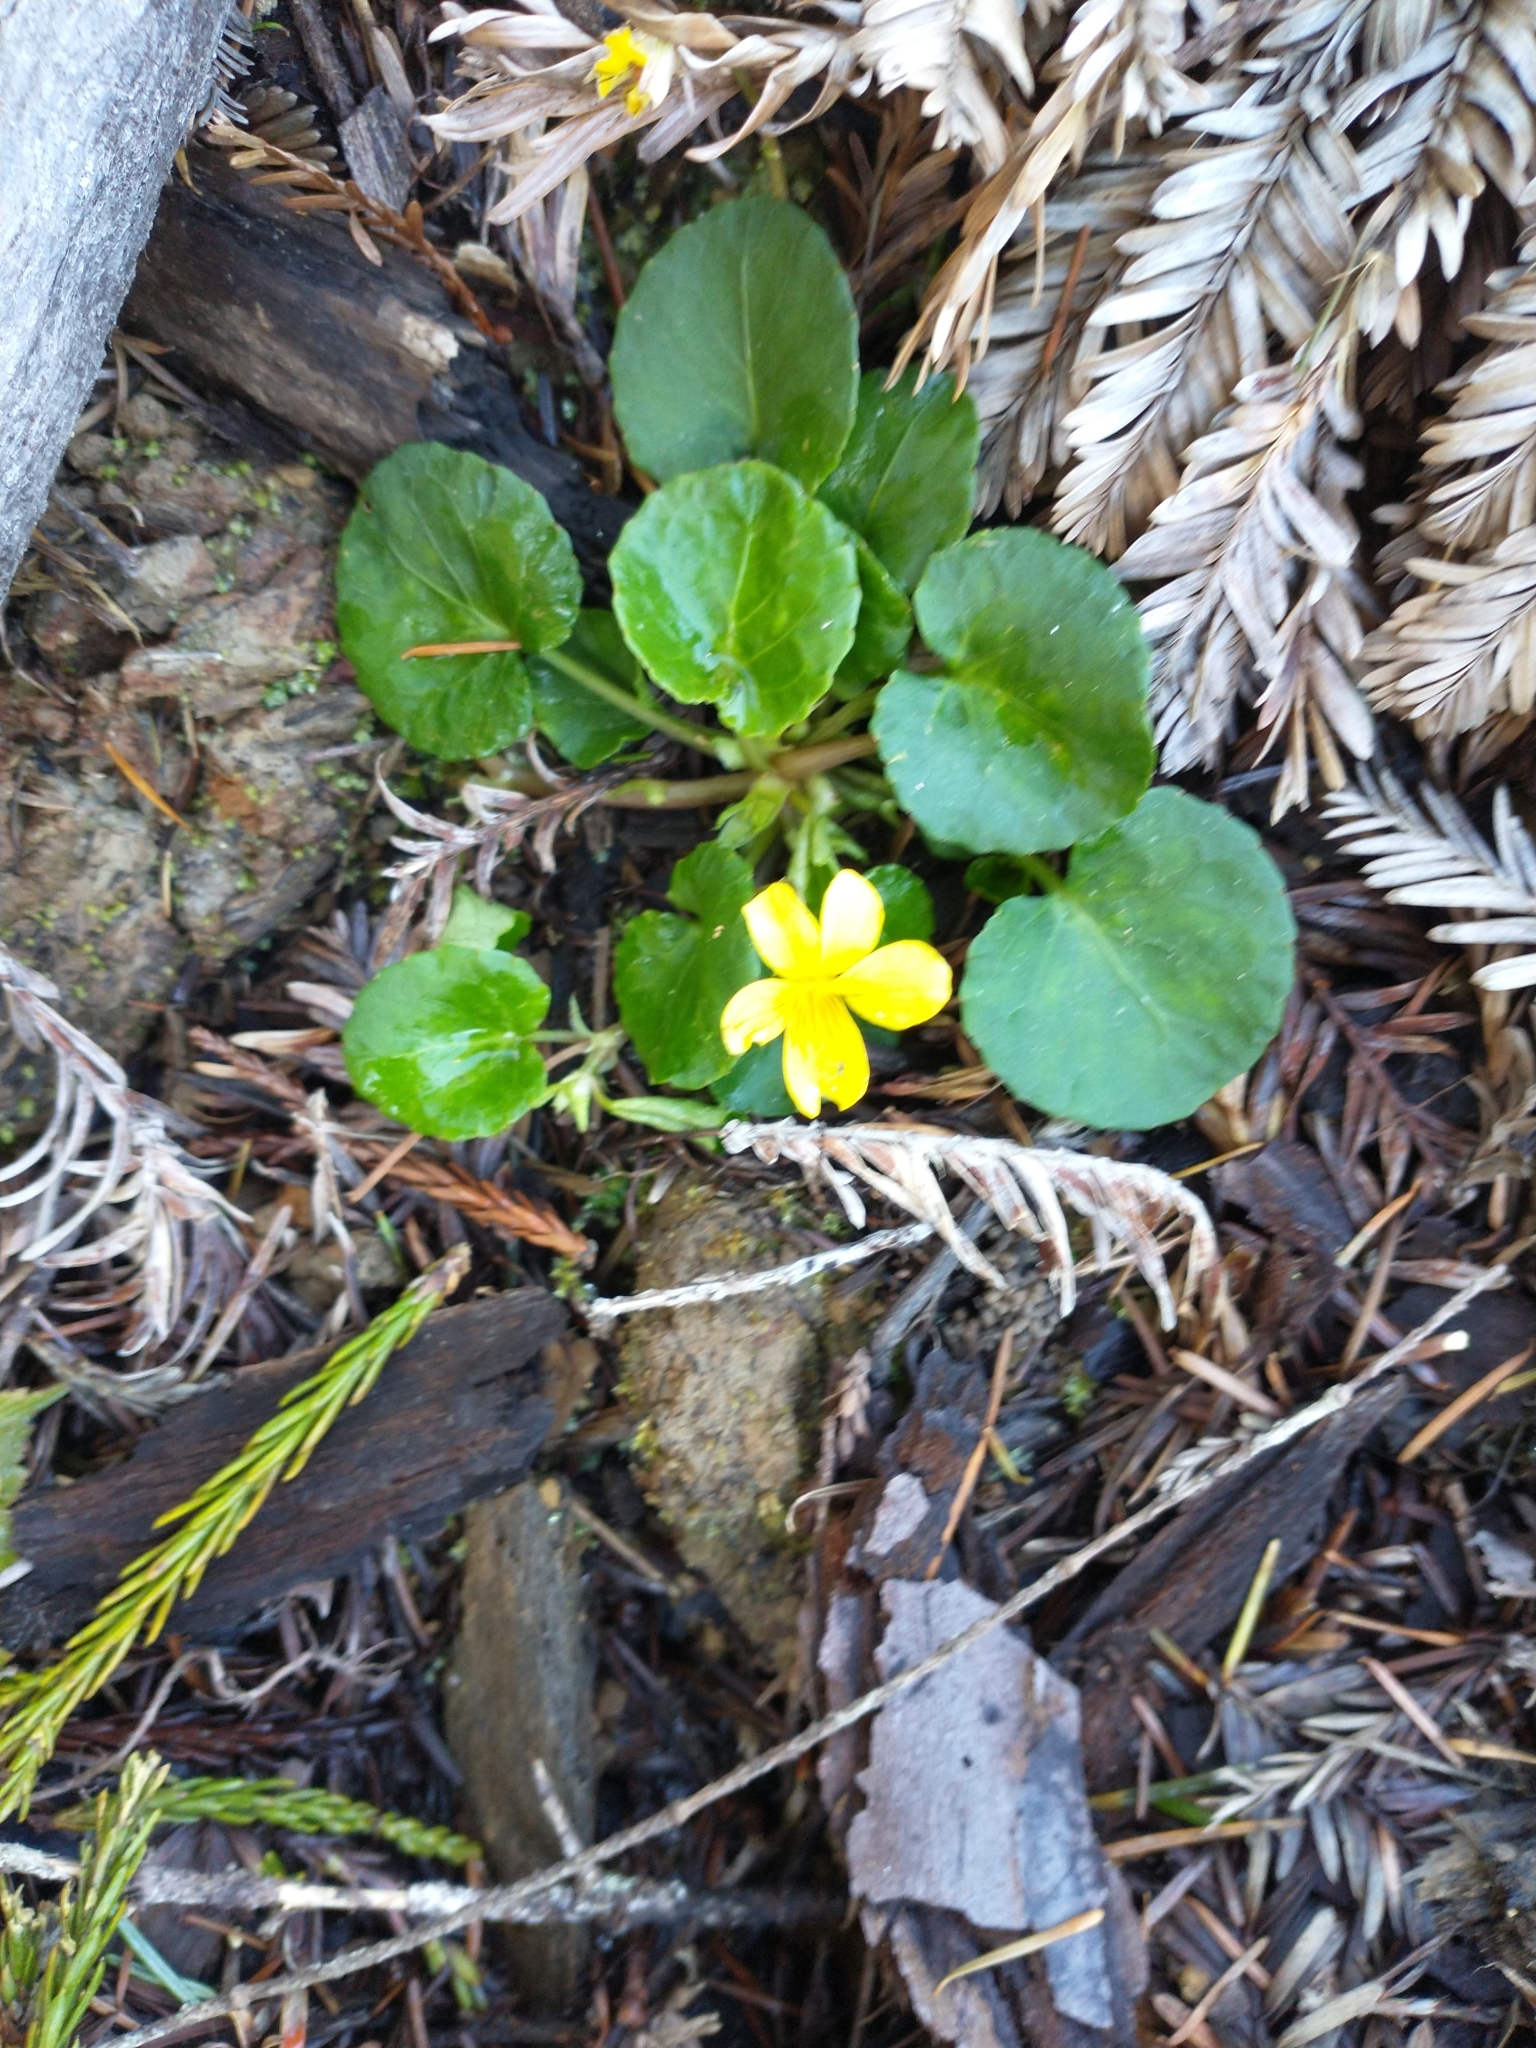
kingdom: Plantae
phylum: Tracheophyta
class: Magnoliopsida
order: Malpighiales
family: Violaceae
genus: Viola
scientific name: Viola sempervirens
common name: Evergreen violet
